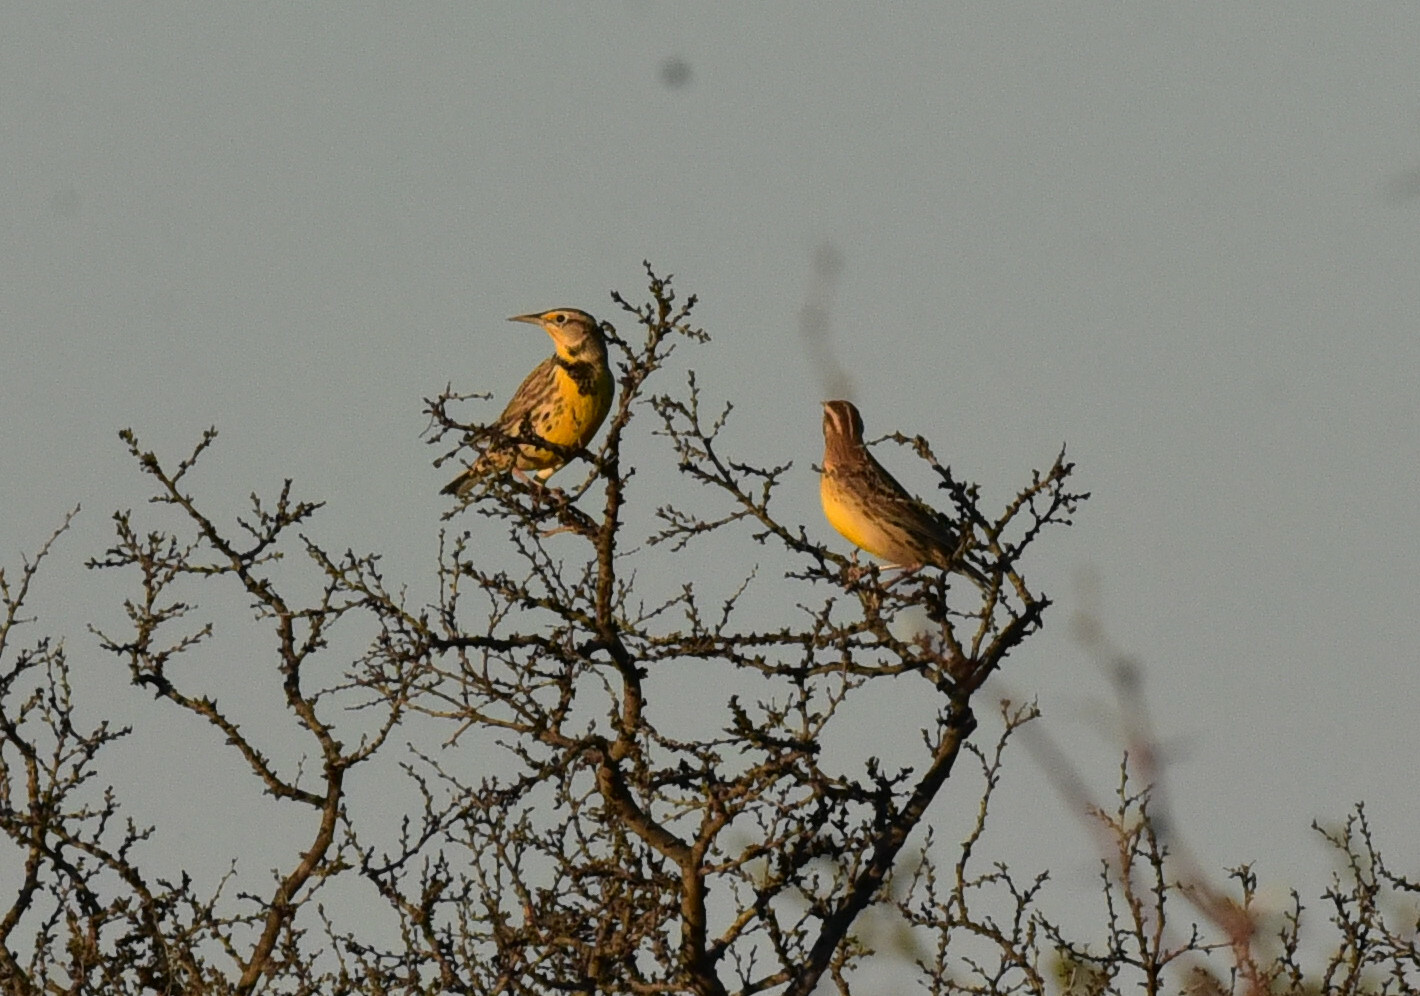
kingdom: Animalia
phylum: Chordata
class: Aves
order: Passeriformes
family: Icteridae
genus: Sturnella
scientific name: Sturnella neglecta
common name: Western meadowlark
